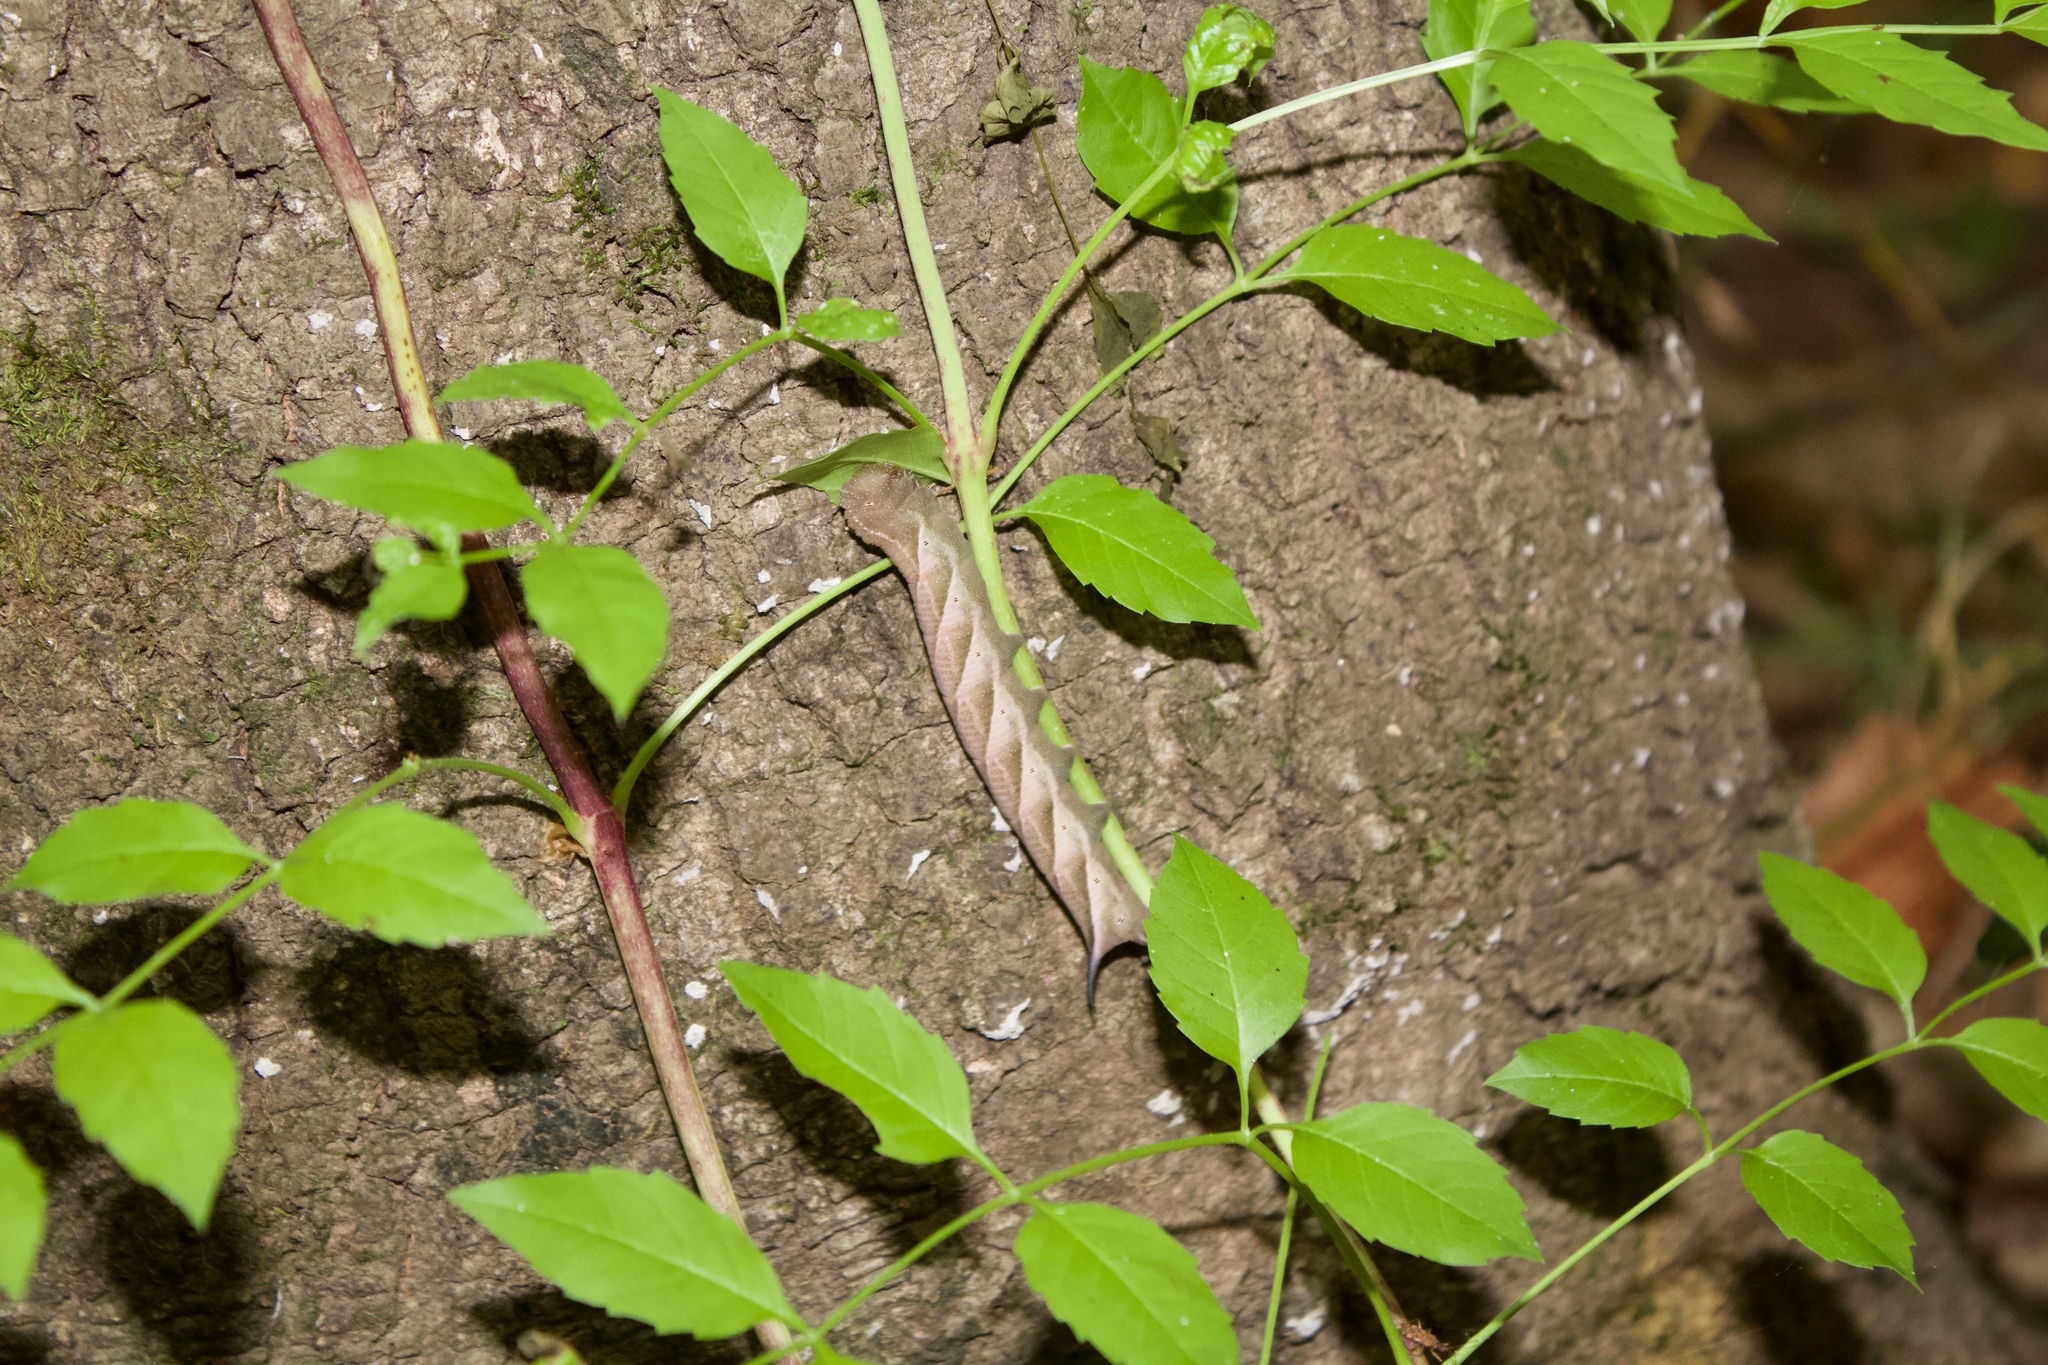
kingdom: Animalia
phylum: Arthropoda
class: Insecta
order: Lepidoptera
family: Sphingidae
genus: Paratrea
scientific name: Paratrea plebeja
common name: Plebian sphinx
